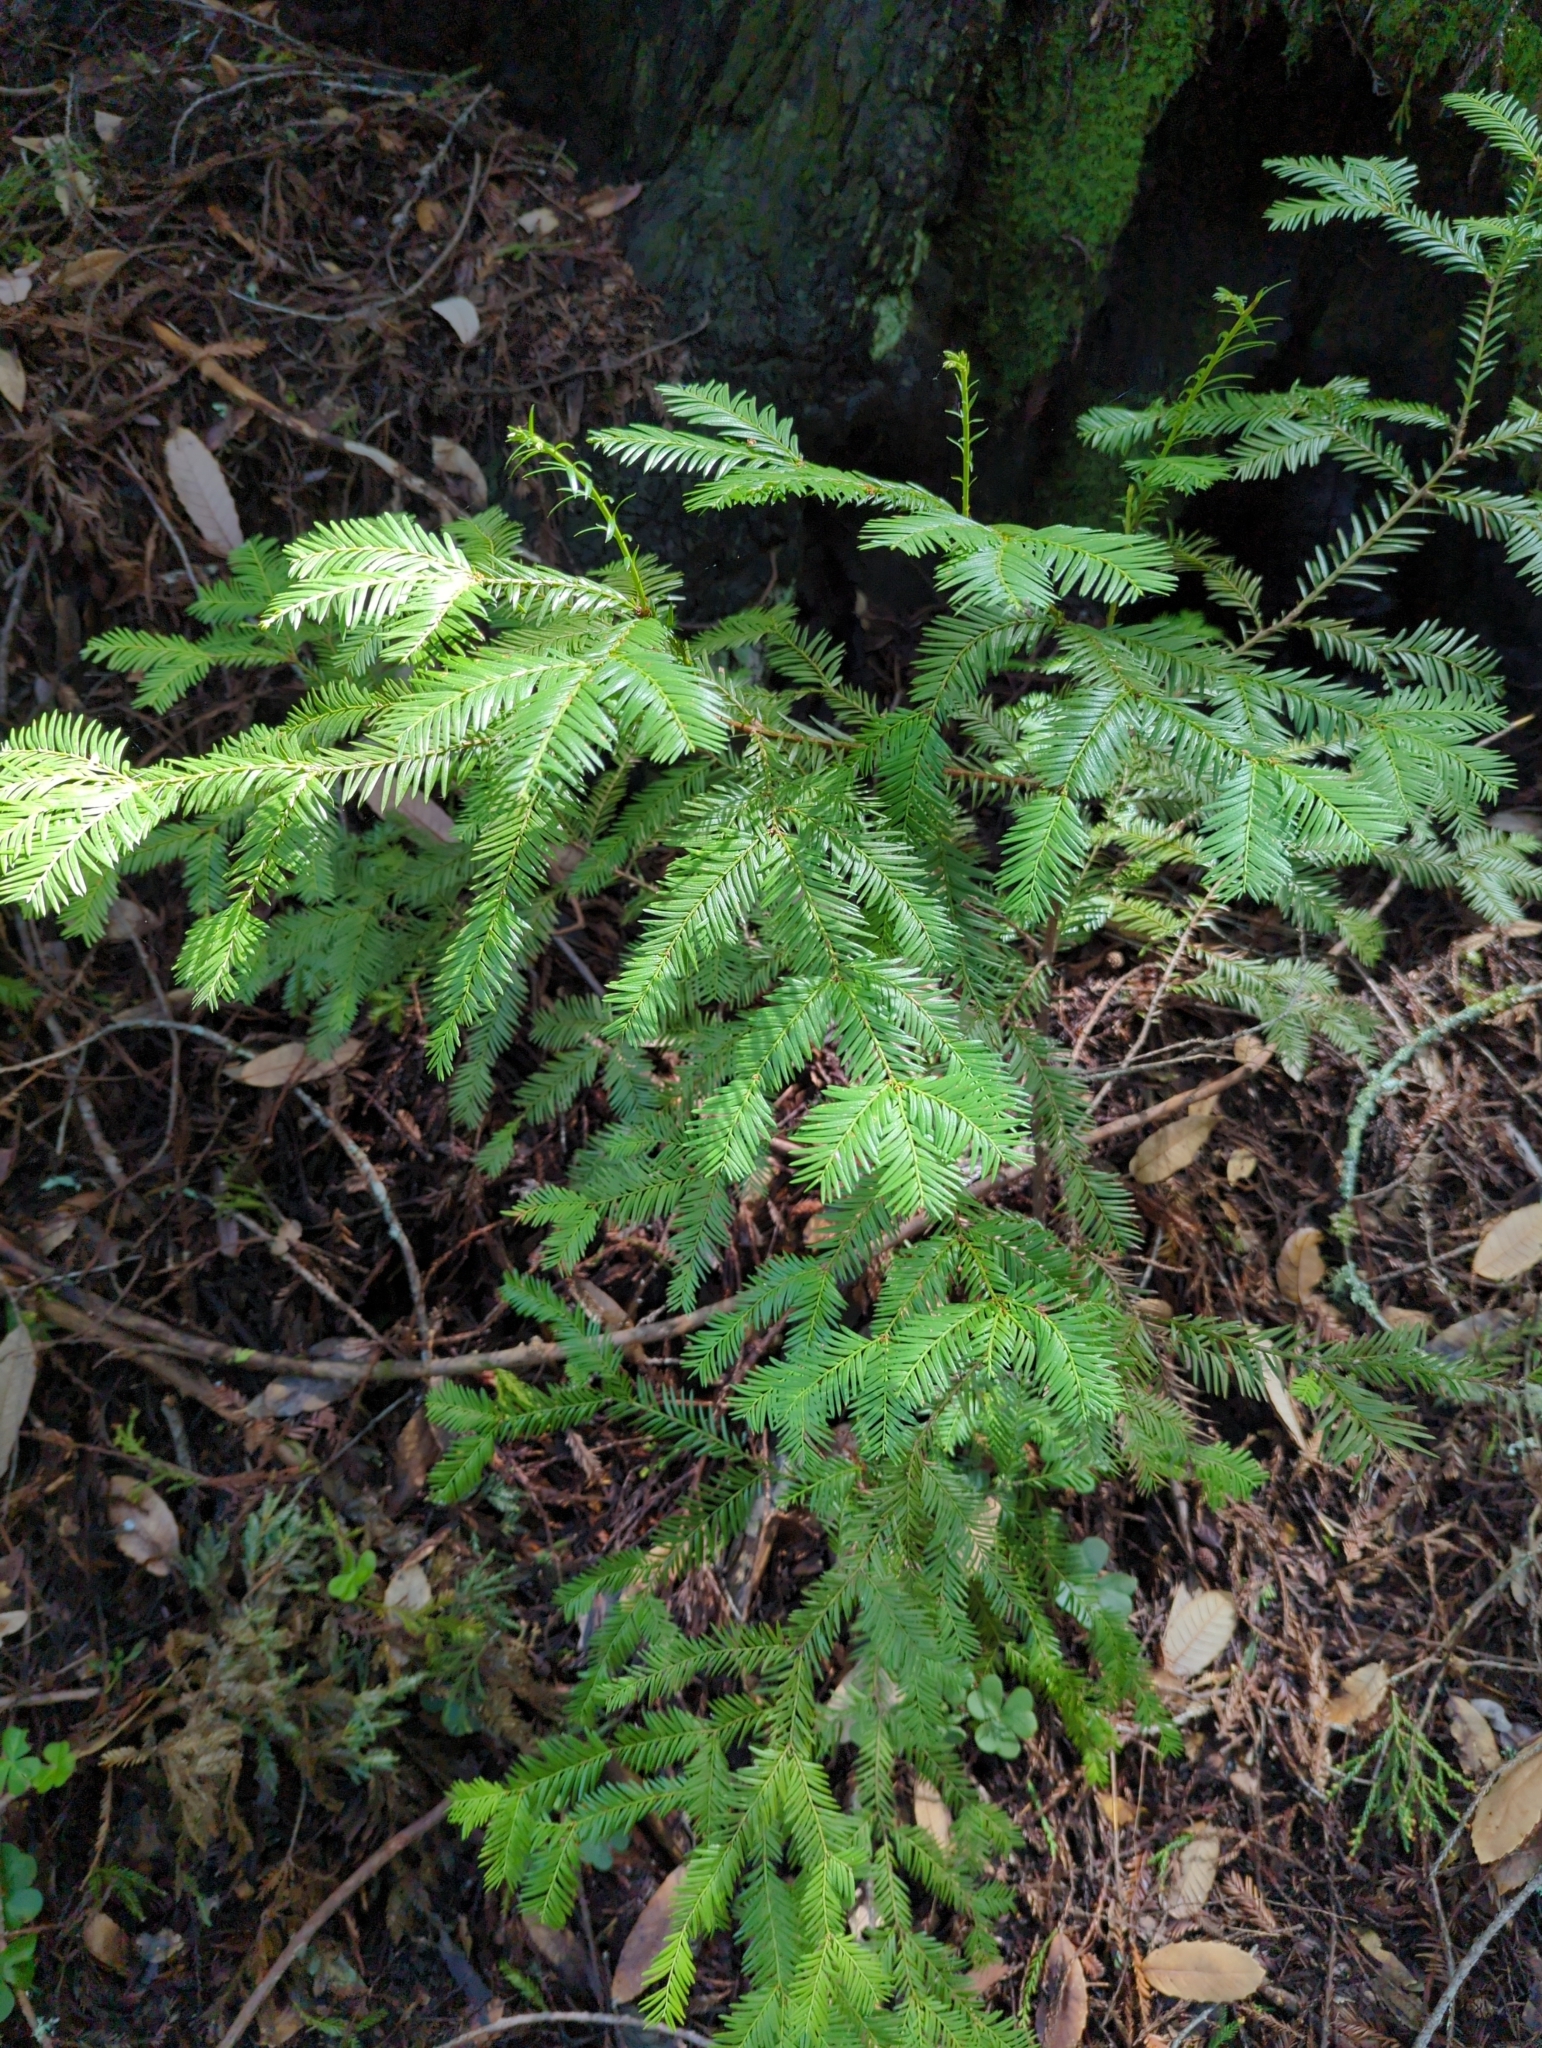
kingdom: Plantae
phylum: Tracheophyta
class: Pinopsida
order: Pinales
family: Cupressaceae
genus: Sequoia
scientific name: Sequoia sempervirens
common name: Coast redwood
